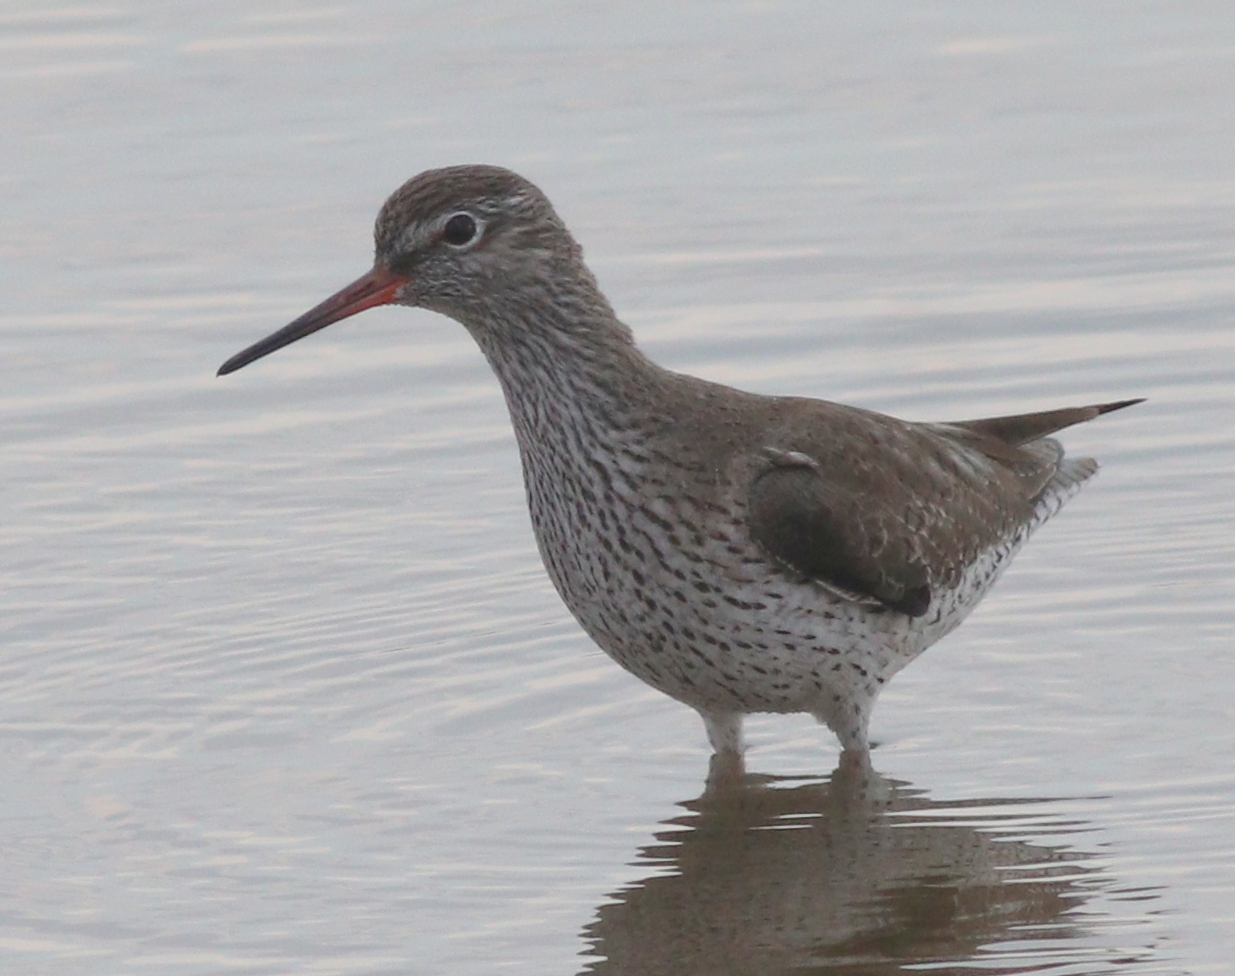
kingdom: Animalia
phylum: Chordata
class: Aves
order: Charadriiformes
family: Scolopacidae
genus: Tringa
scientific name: Tringa totanus
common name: Common redshank
